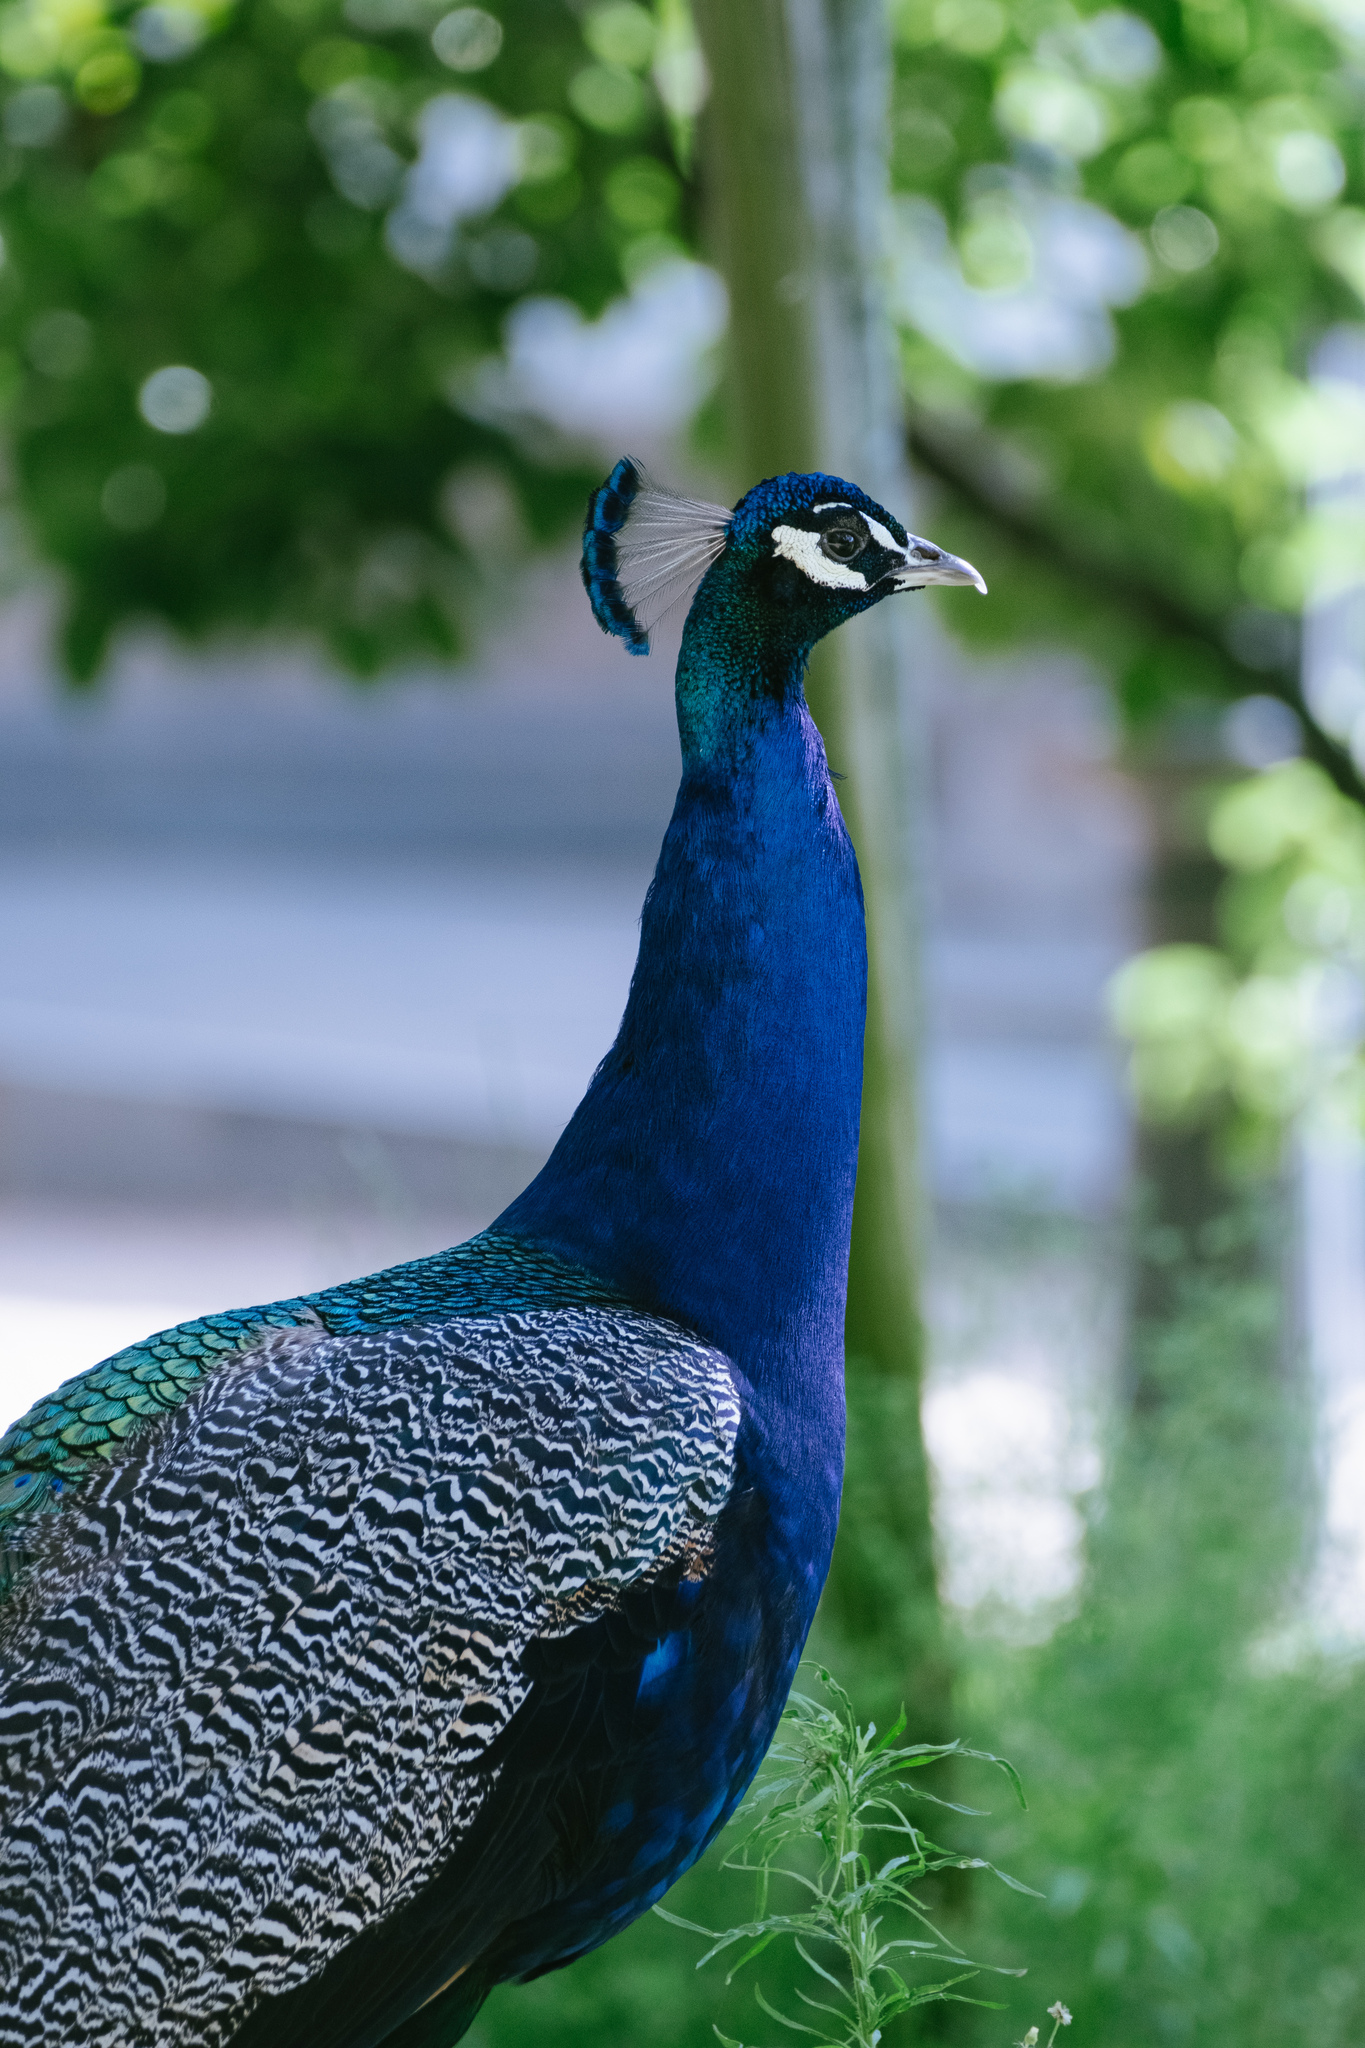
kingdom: Animalia
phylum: Chordata
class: Aves
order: Galliformes
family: Phasianidae
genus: Pavo
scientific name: Pavo cristatus
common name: Indian peafowl
